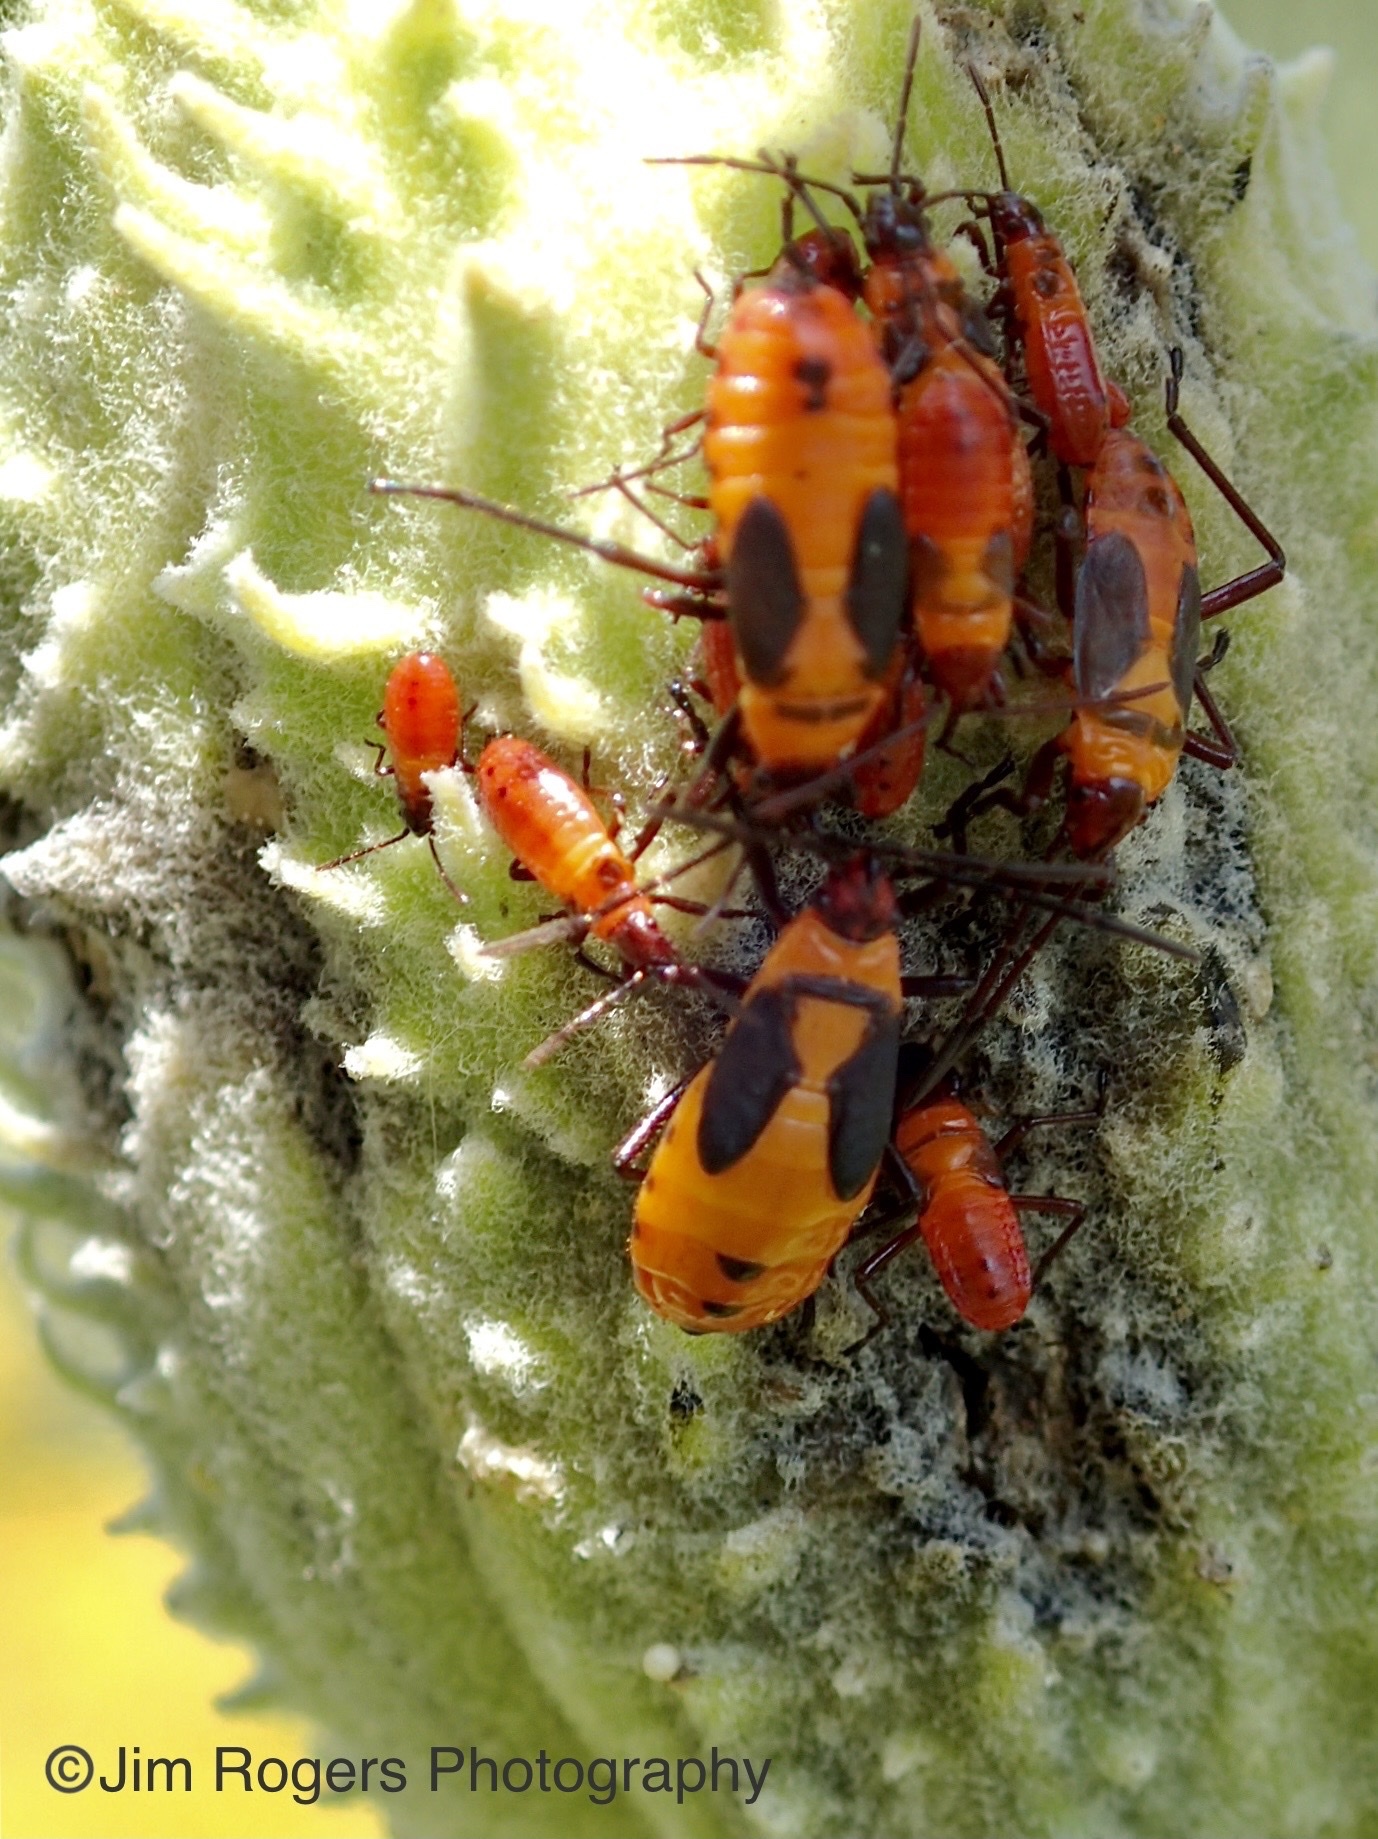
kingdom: Animalia
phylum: Arthropoda
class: Insecta
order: Hemiptera
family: Lygaeidae
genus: Oncopeltus
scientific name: Oncopeltus fasciatus
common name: Large milkweed bug
